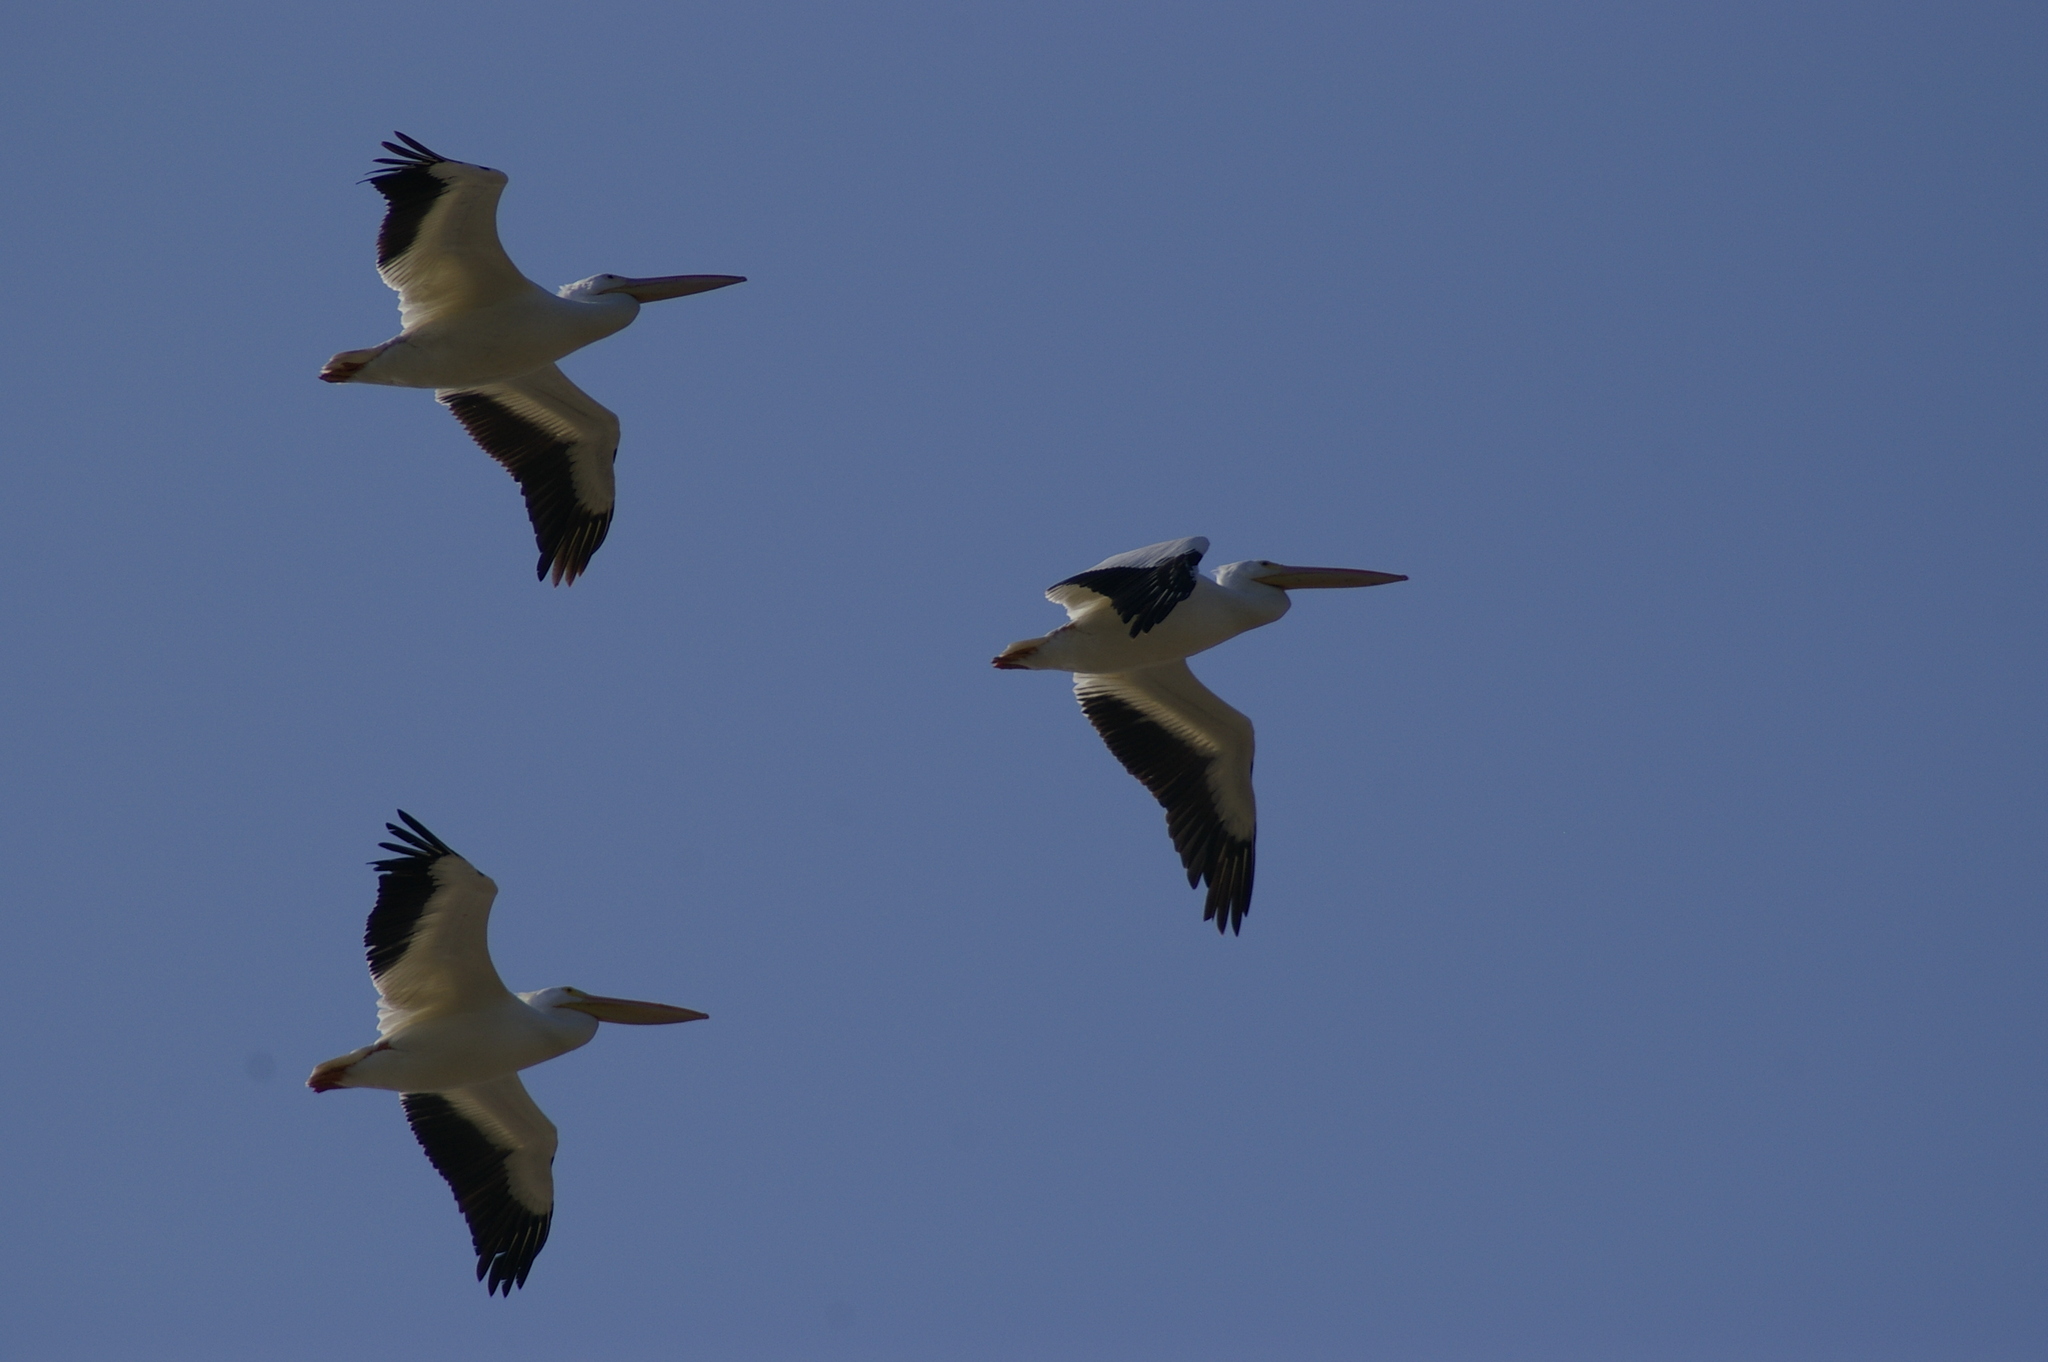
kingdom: Animalia
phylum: Chordata
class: Aves
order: Pelecaniformes
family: Pelecanidae
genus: Pelecanus
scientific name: Pelecanus erythrorhynchos
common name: American white pelican
